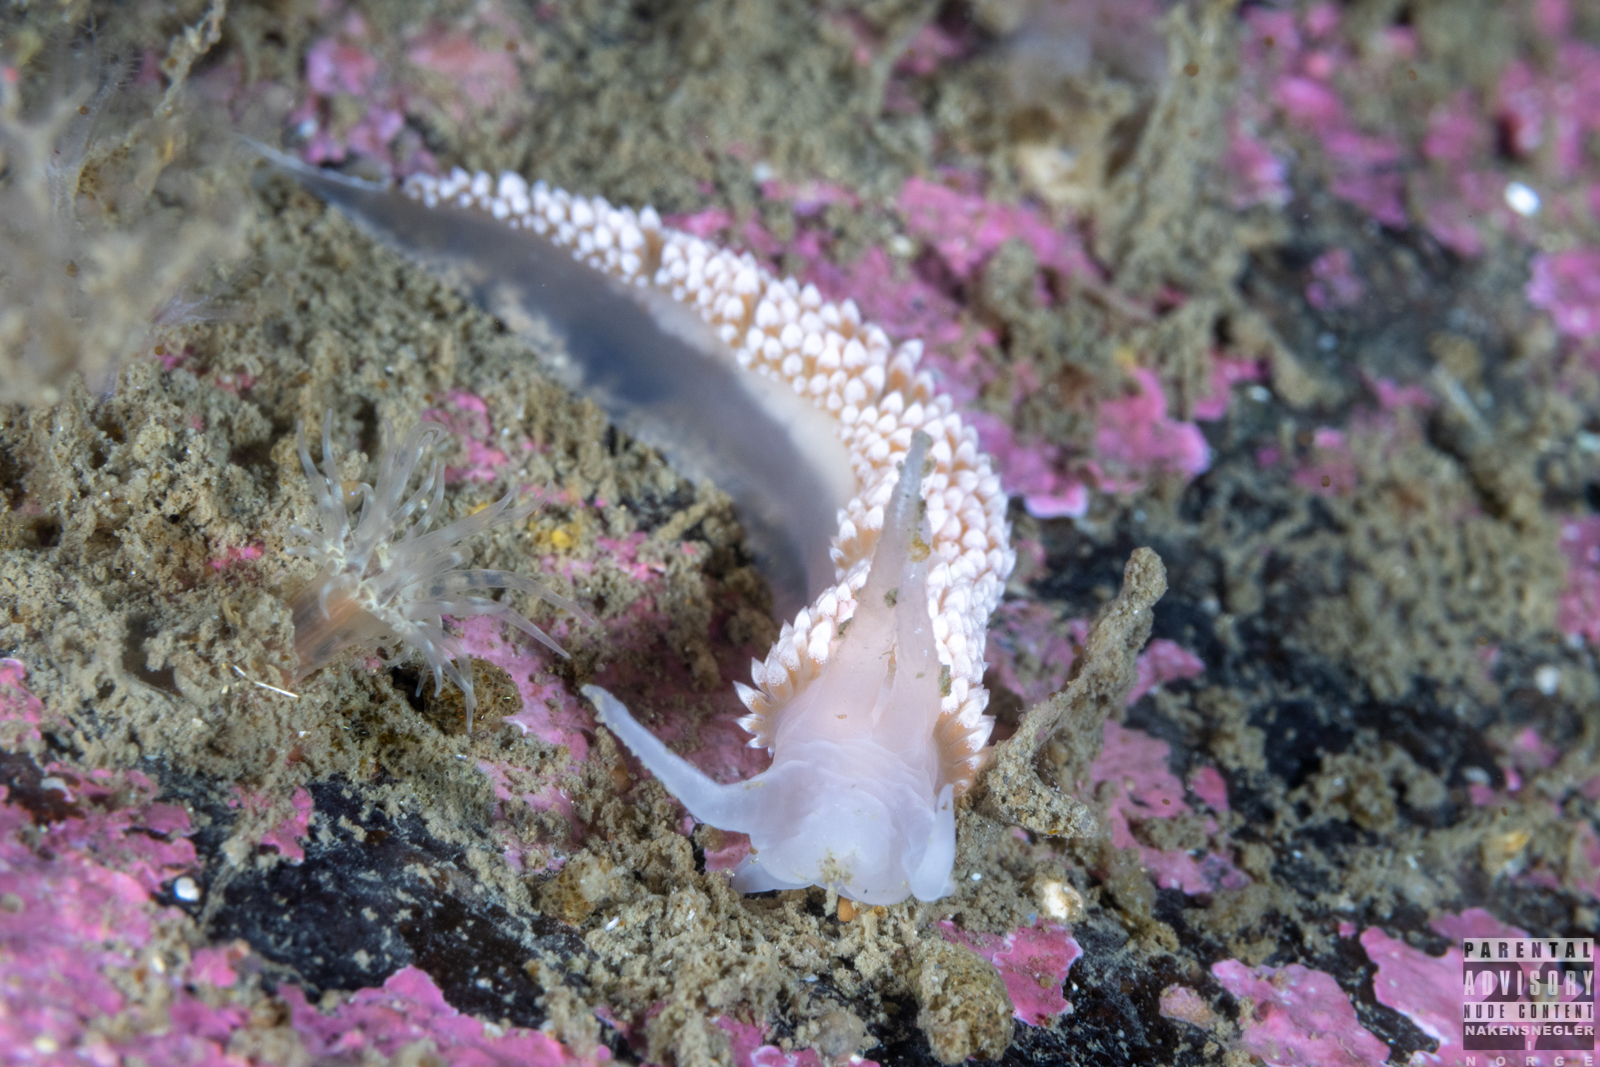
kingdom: Animalia
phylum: Mollusca
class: Gastropoda
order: Nudibranchia
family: Coryphellidae
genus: Coryphella
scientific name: Coryphella verrucosa
